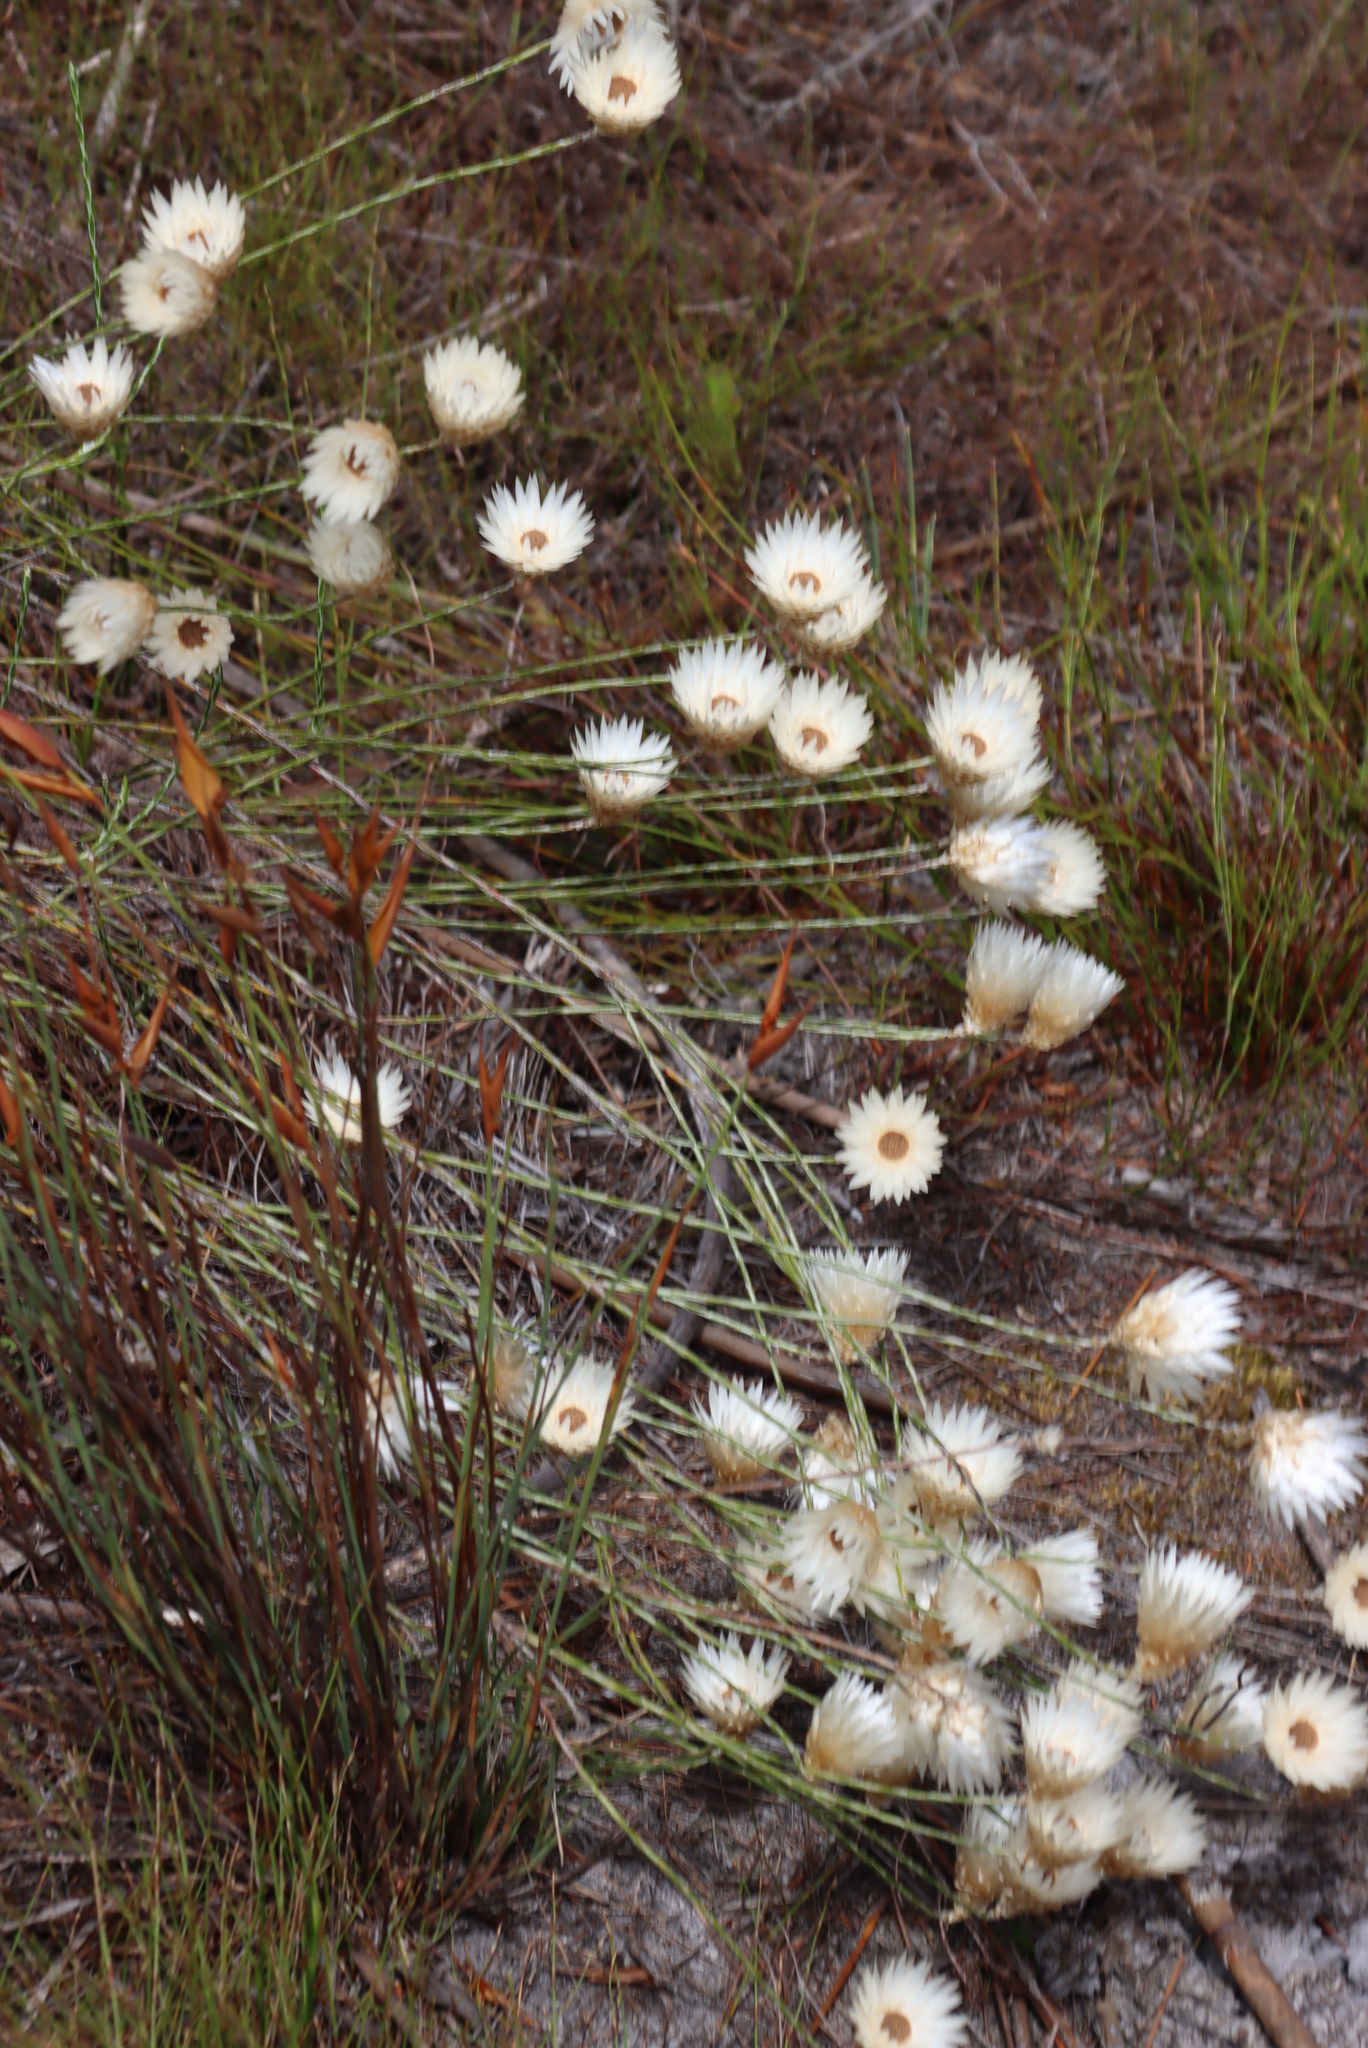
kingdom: Plantae
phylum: Tracheophyta
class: Magnoliopsida
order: Asterales
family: Asteraceae
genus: Edmondia
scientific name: Edmondia sesamoides
